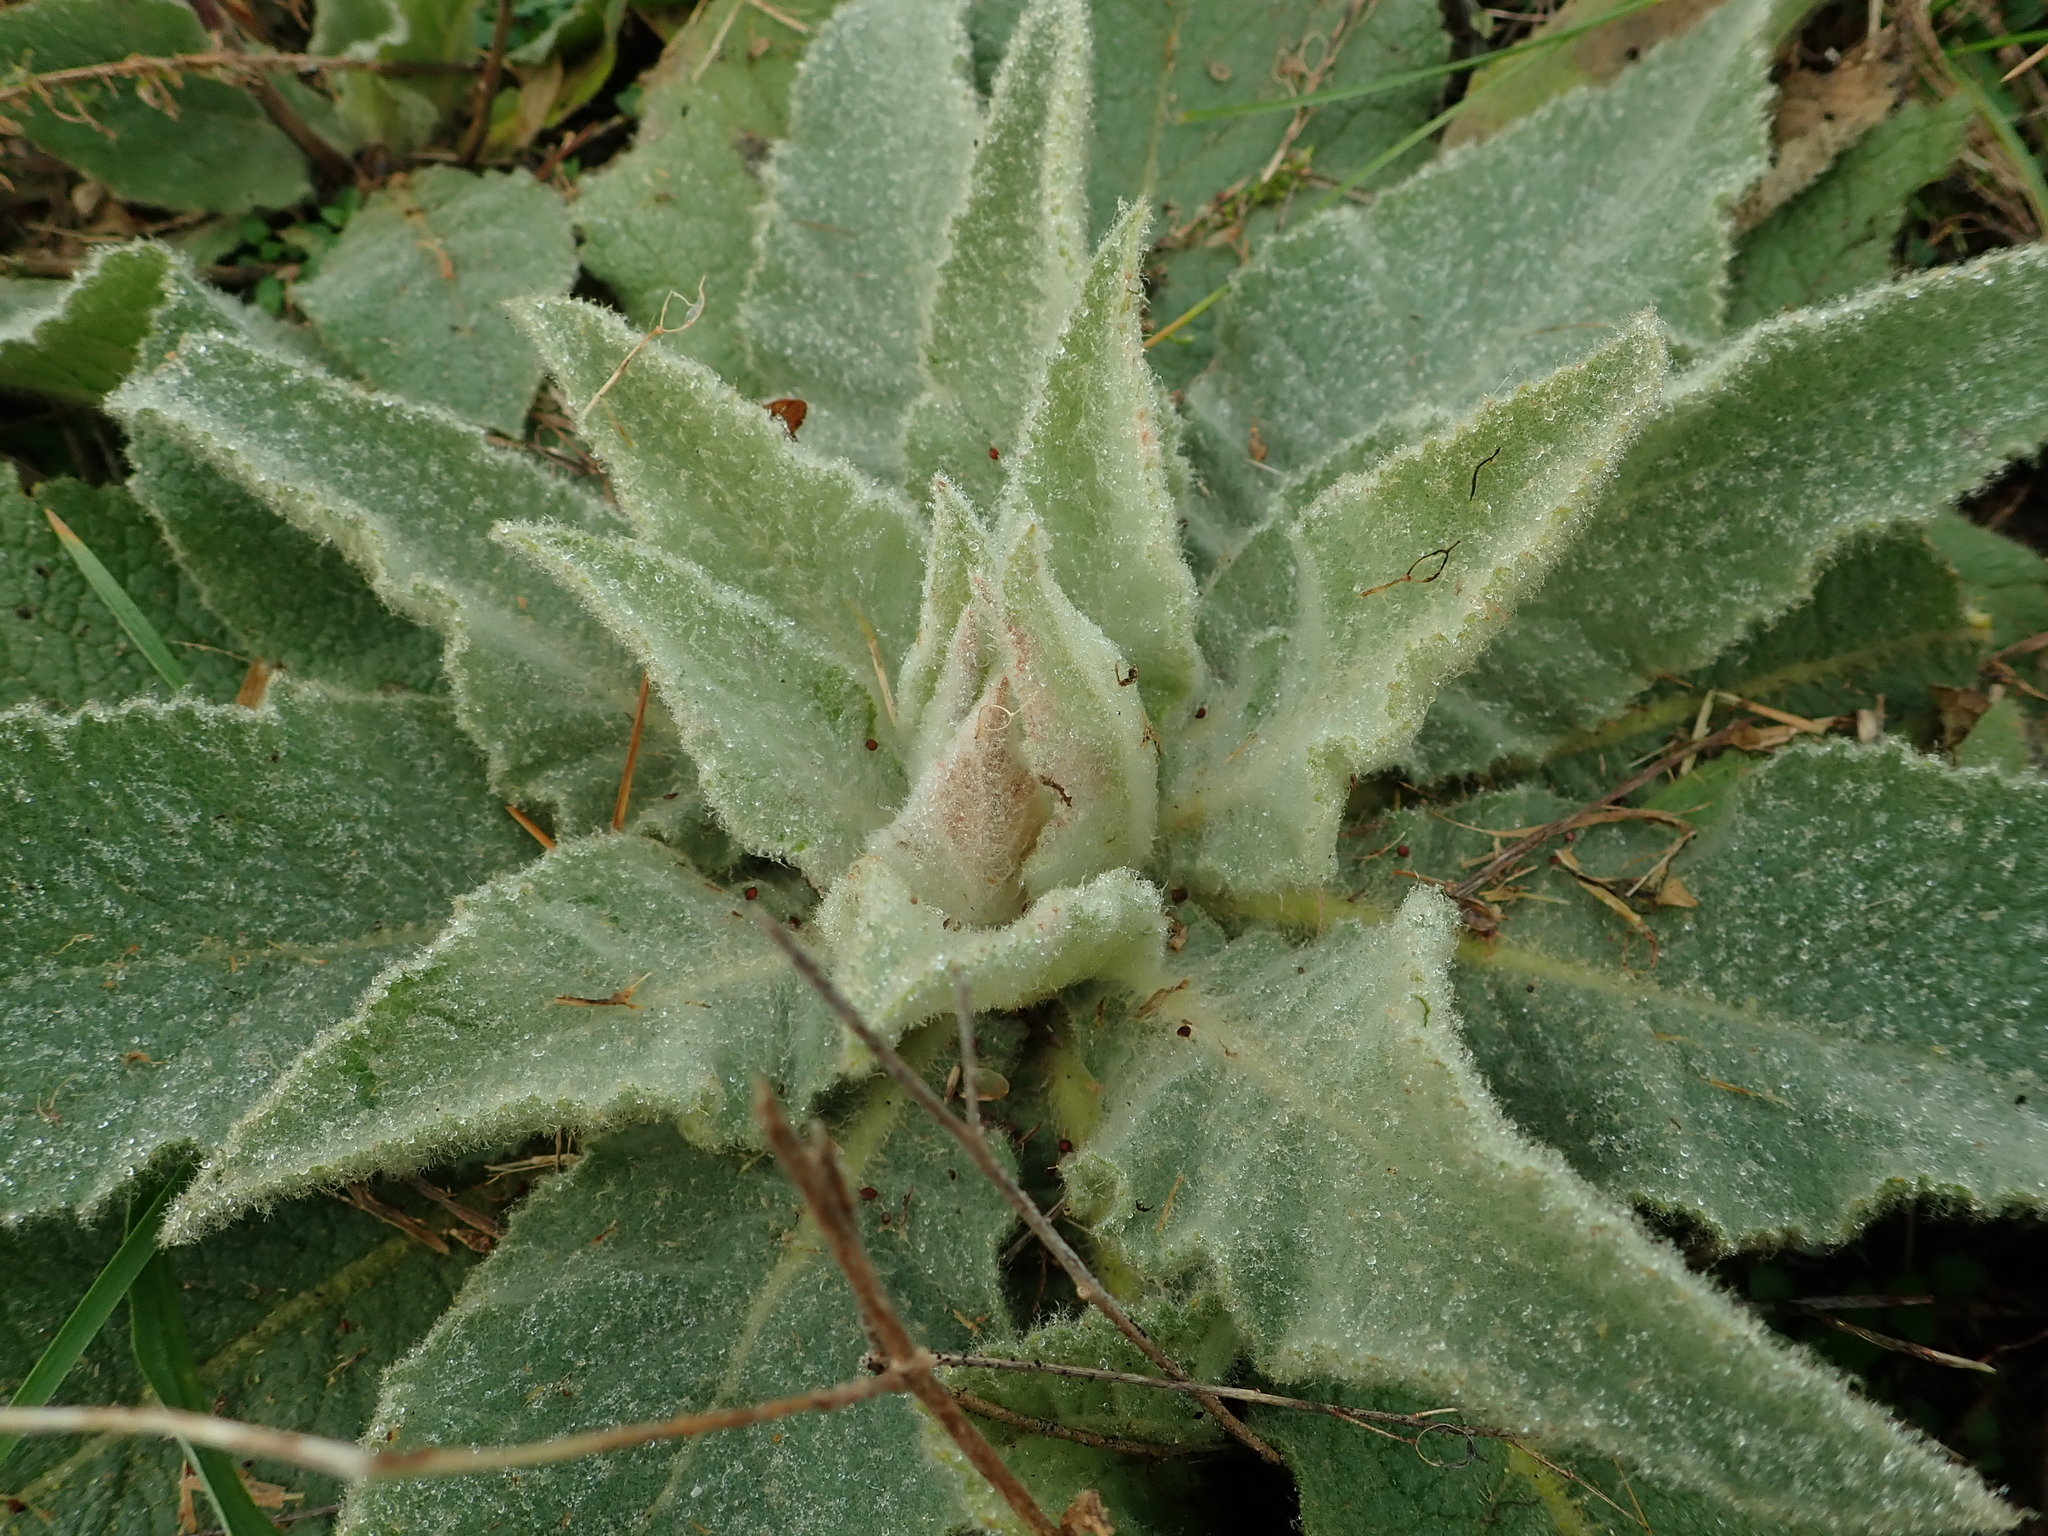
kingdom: Plantae
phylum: Tracheophyta
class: Magnoliopsida
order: Lamiales
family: Scrophulariaceae
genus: Verbascum
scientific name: Verbascum thapsus
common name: Common mullein
